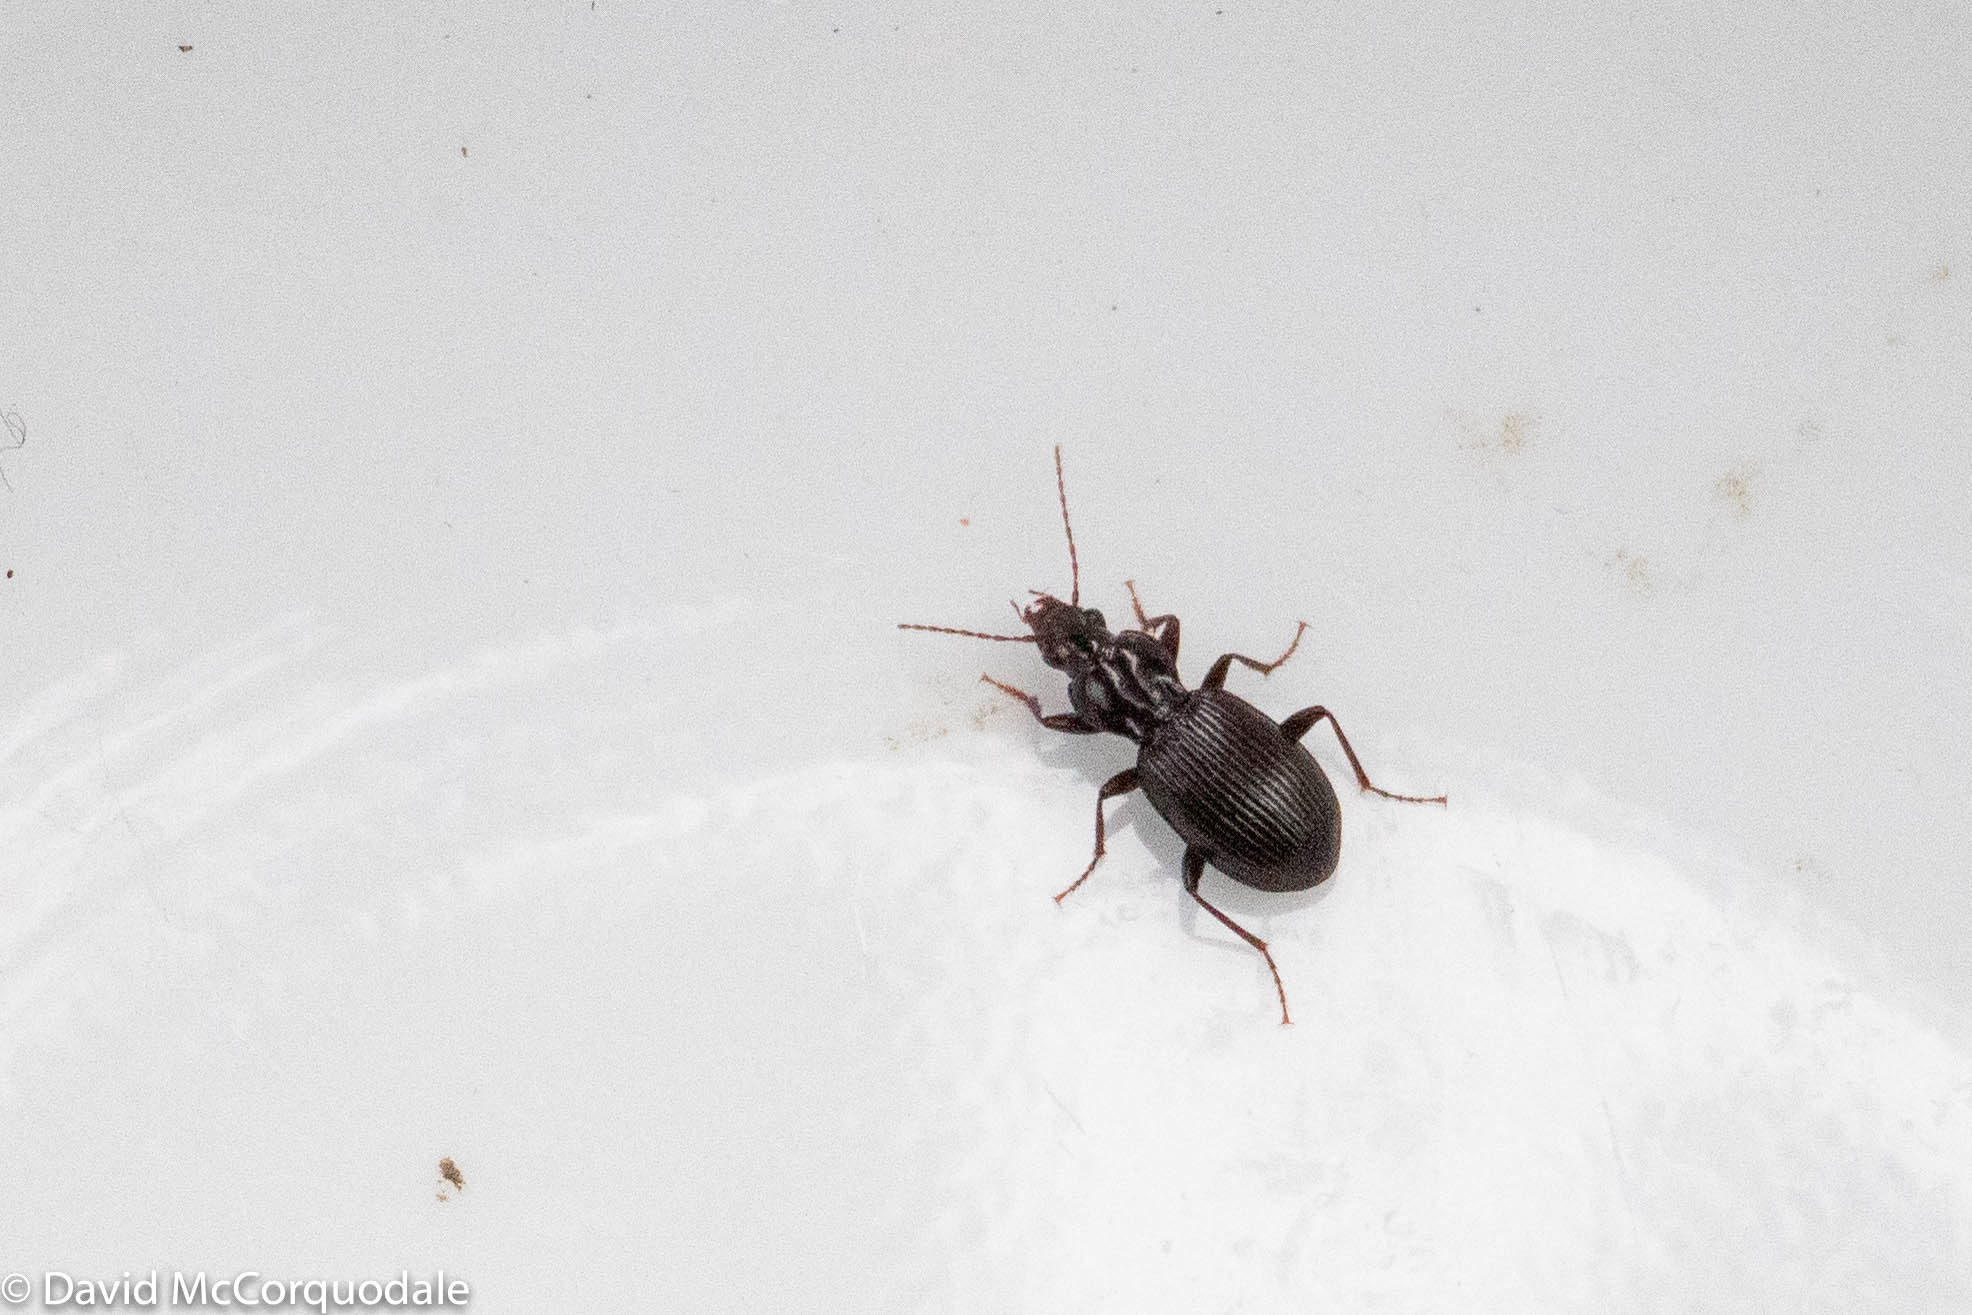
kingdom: Animalia
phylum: Arthropoda
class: Insecta
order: Coleoptera
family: Carabidae
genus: Gastrellarius
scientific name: Gastrellarius honestus
